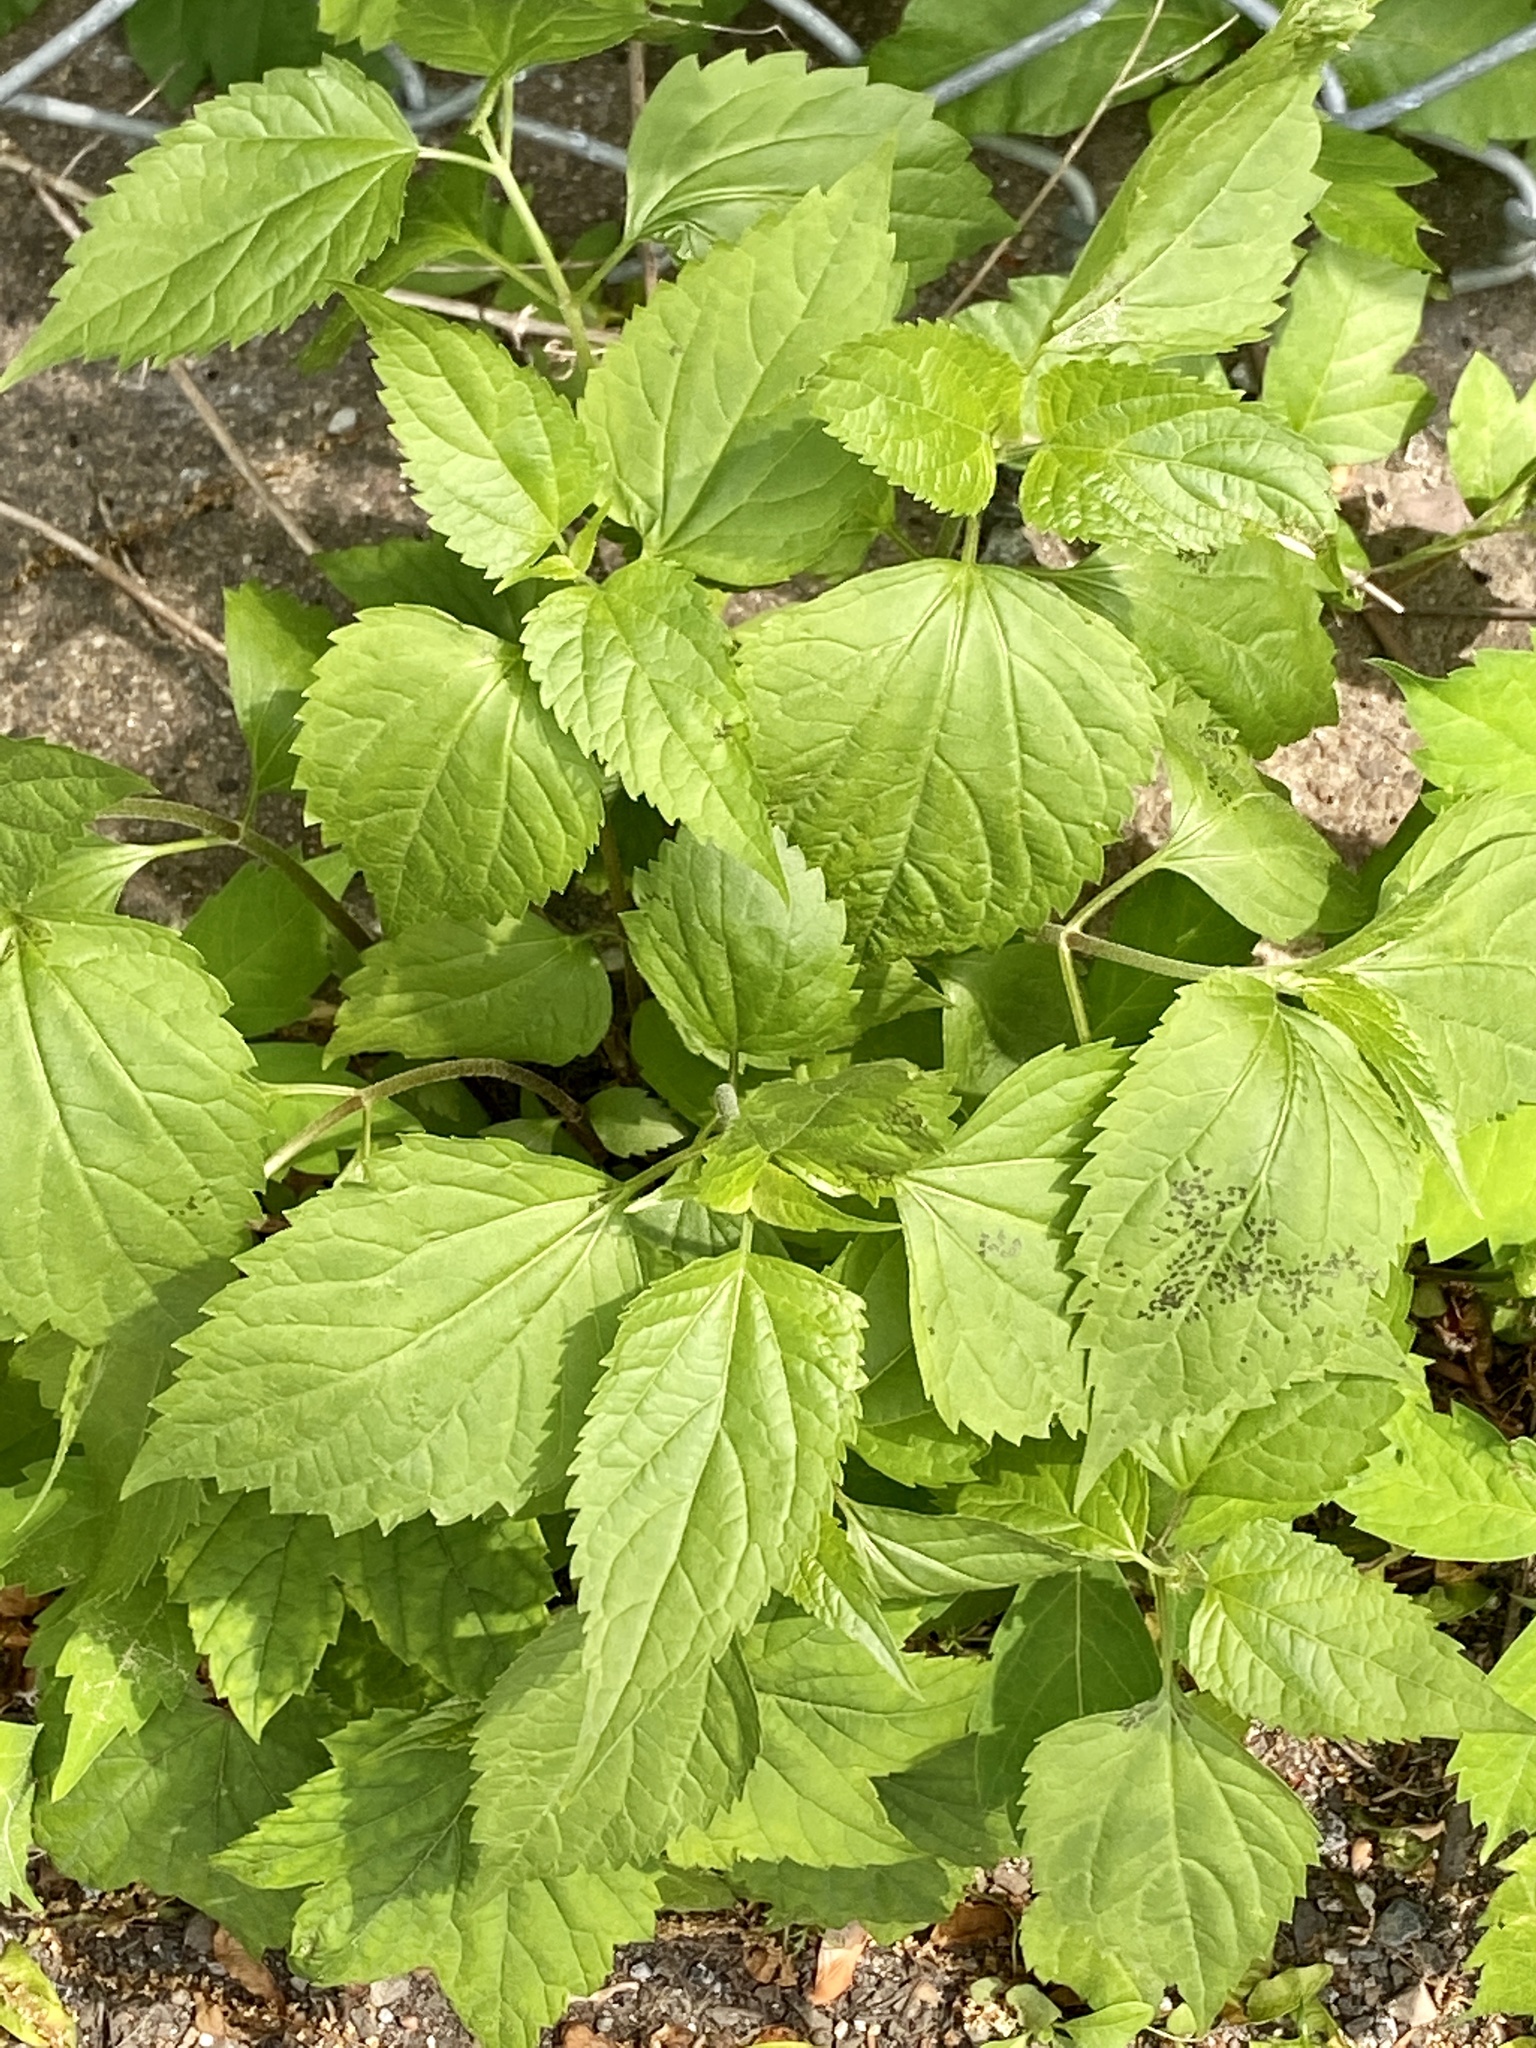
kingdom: Plantae
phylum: Tracheophyta
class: Magnoliopsida
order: Asterales
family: Asteraceae
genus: Ageratina
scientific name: Ageratina altissima
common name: White snakeroot
